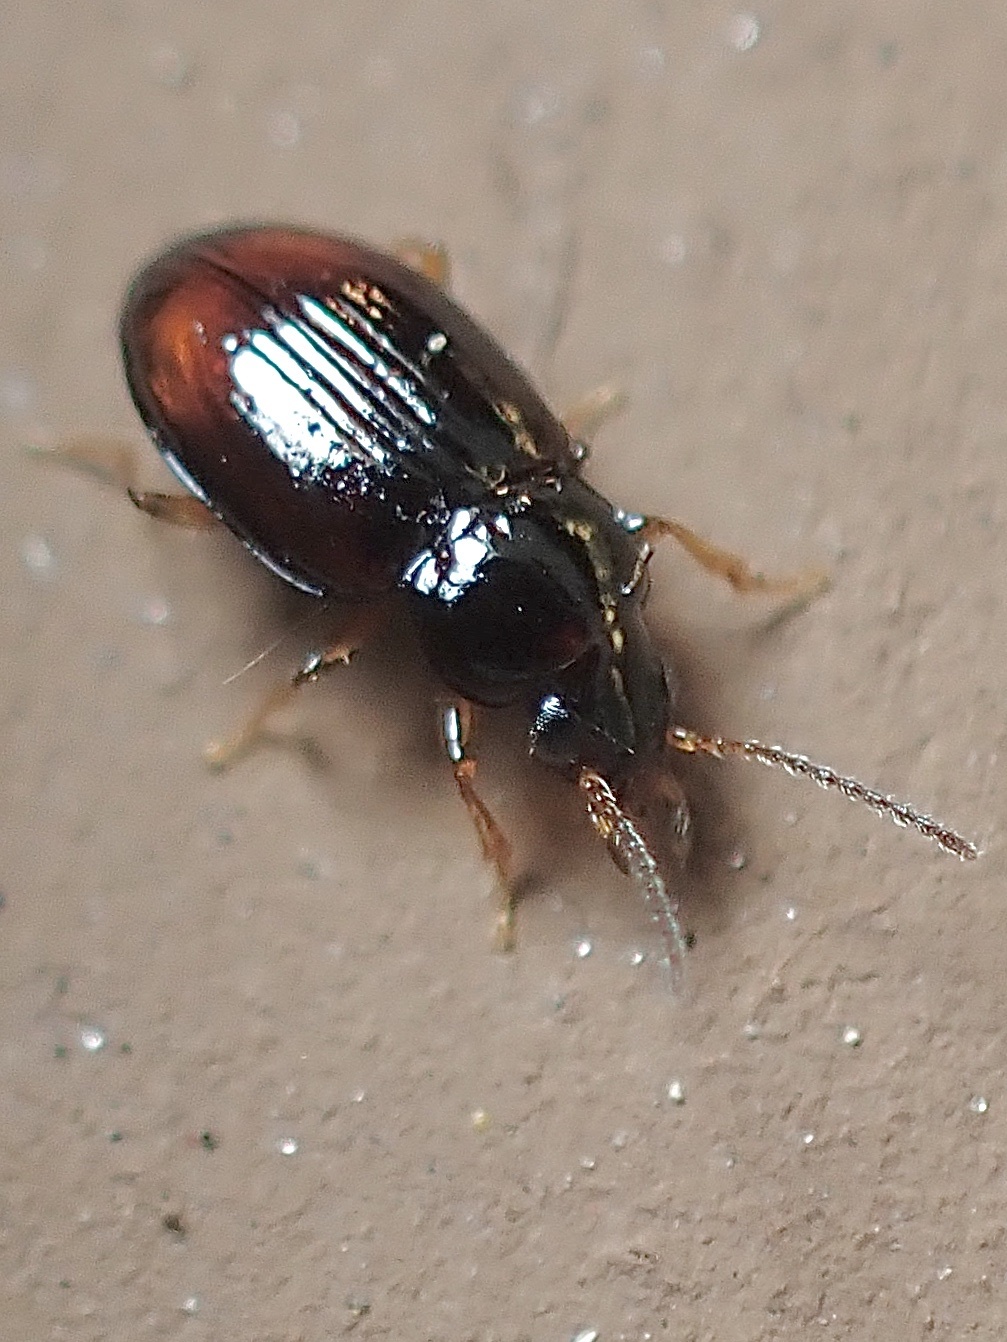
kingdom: Animalia
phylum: Arthropoda
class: Insecta
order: Coleoptera
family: Carabidae
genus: Elaphropus
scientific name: Elaphropus xanthopus
